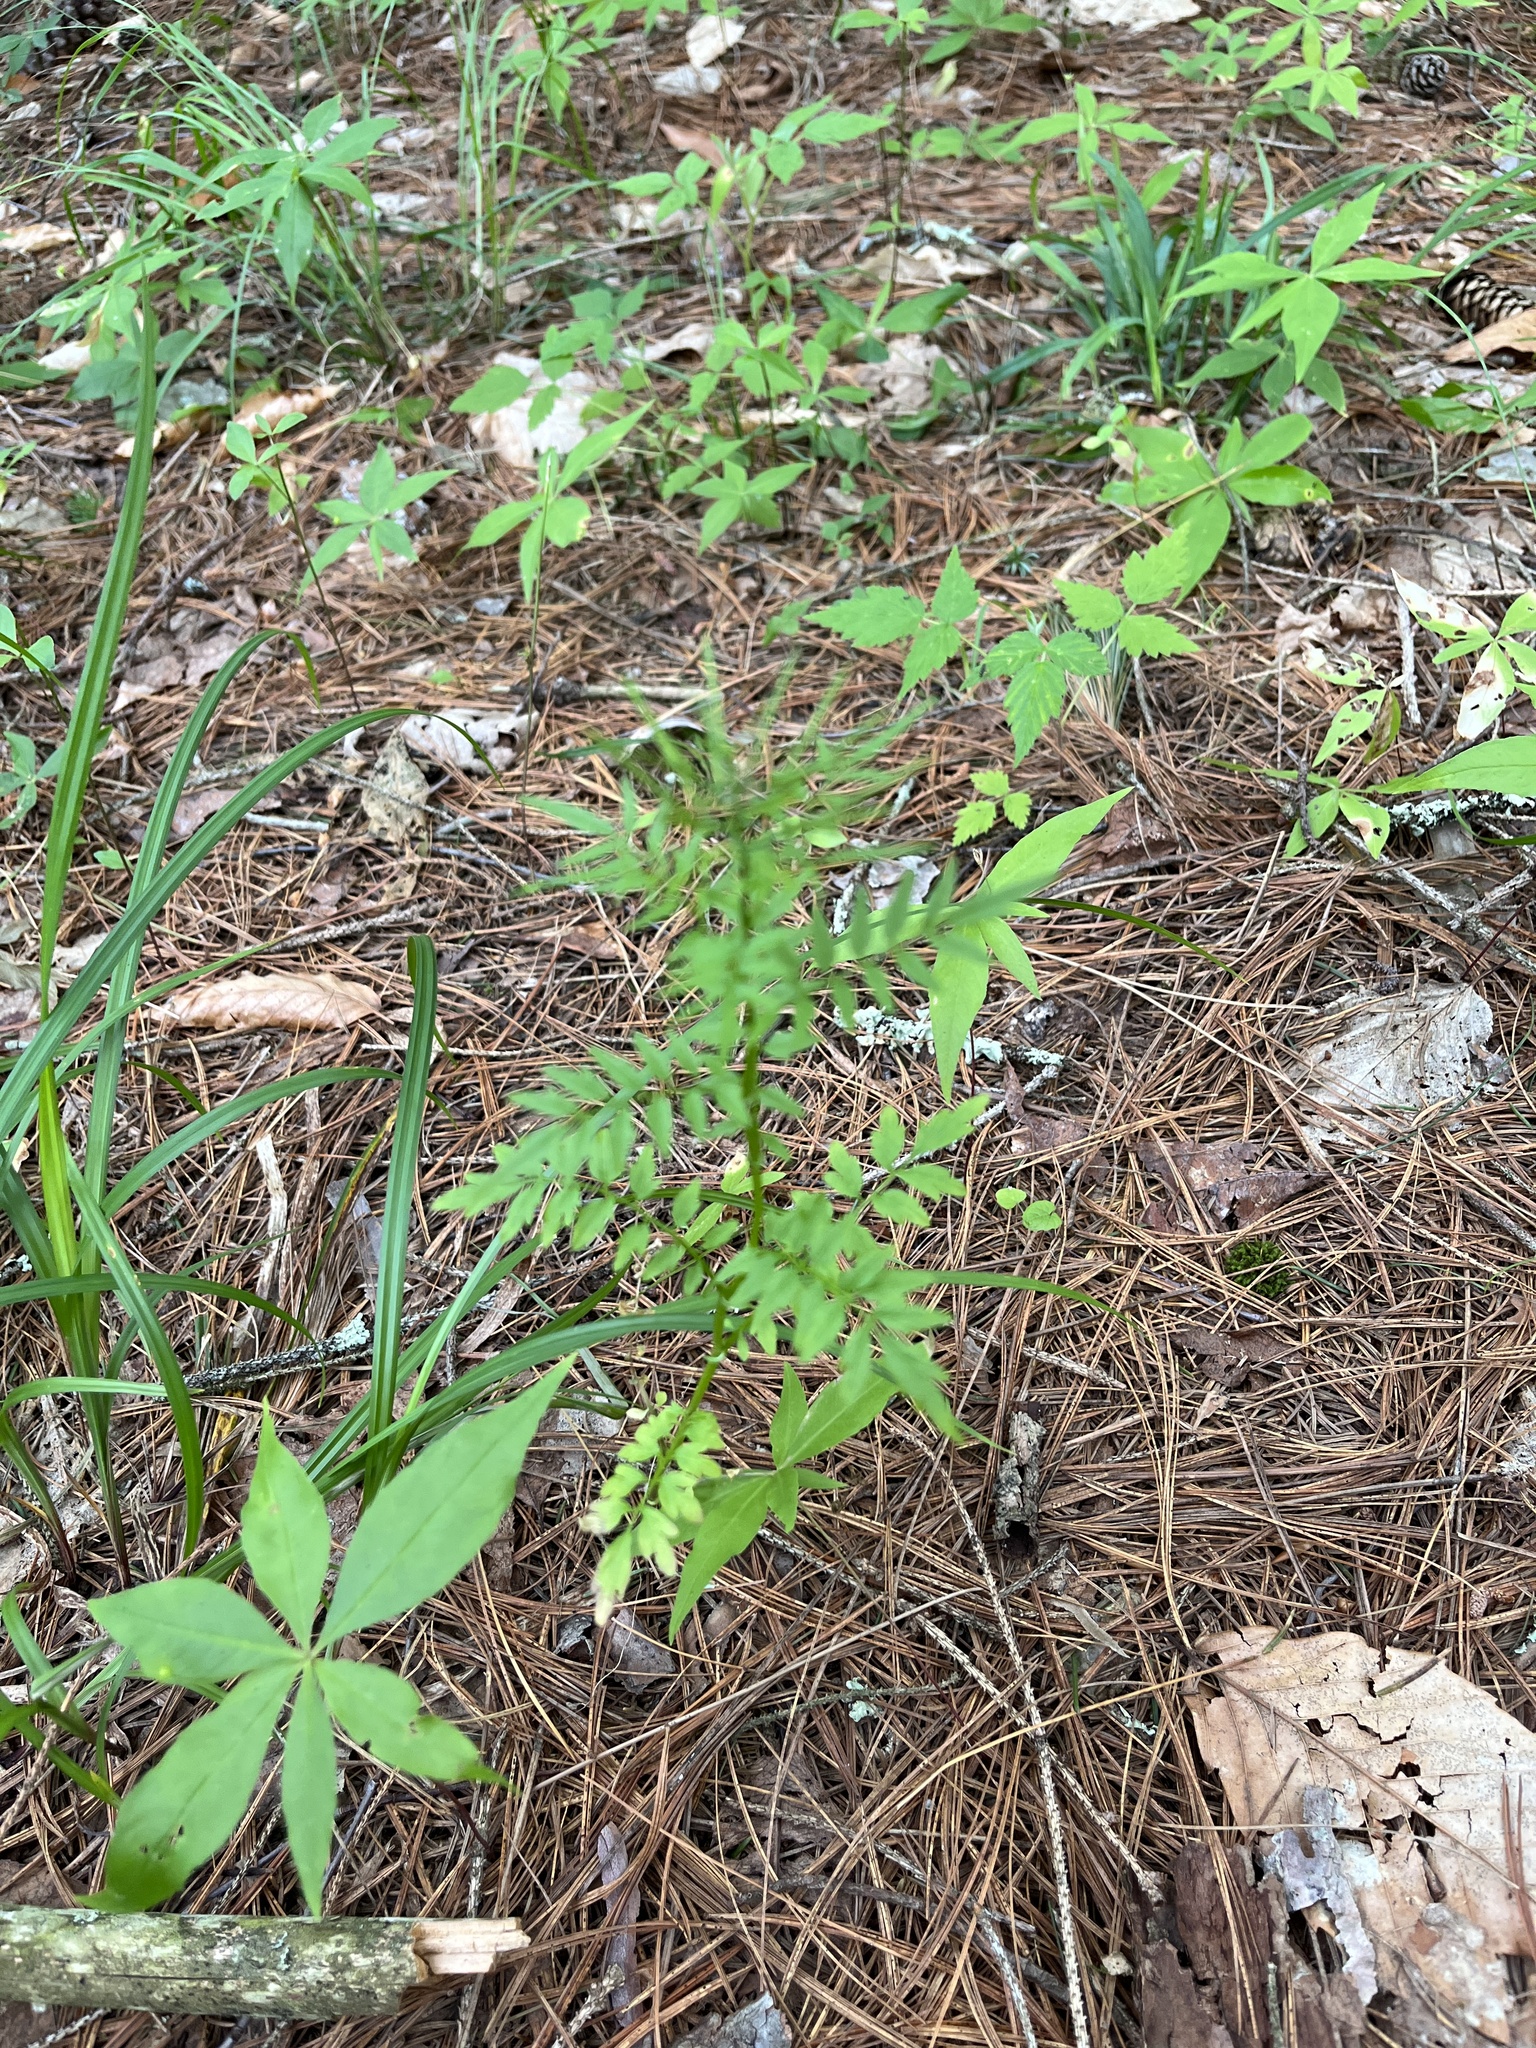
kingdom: Plantae
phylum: Tracheophyta
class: Magnoliopsida
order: Brassicales
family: Brassicaceae
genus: Cardamine
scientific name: Cardamine impatiens
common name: Narrow-leaved bitter-cress
